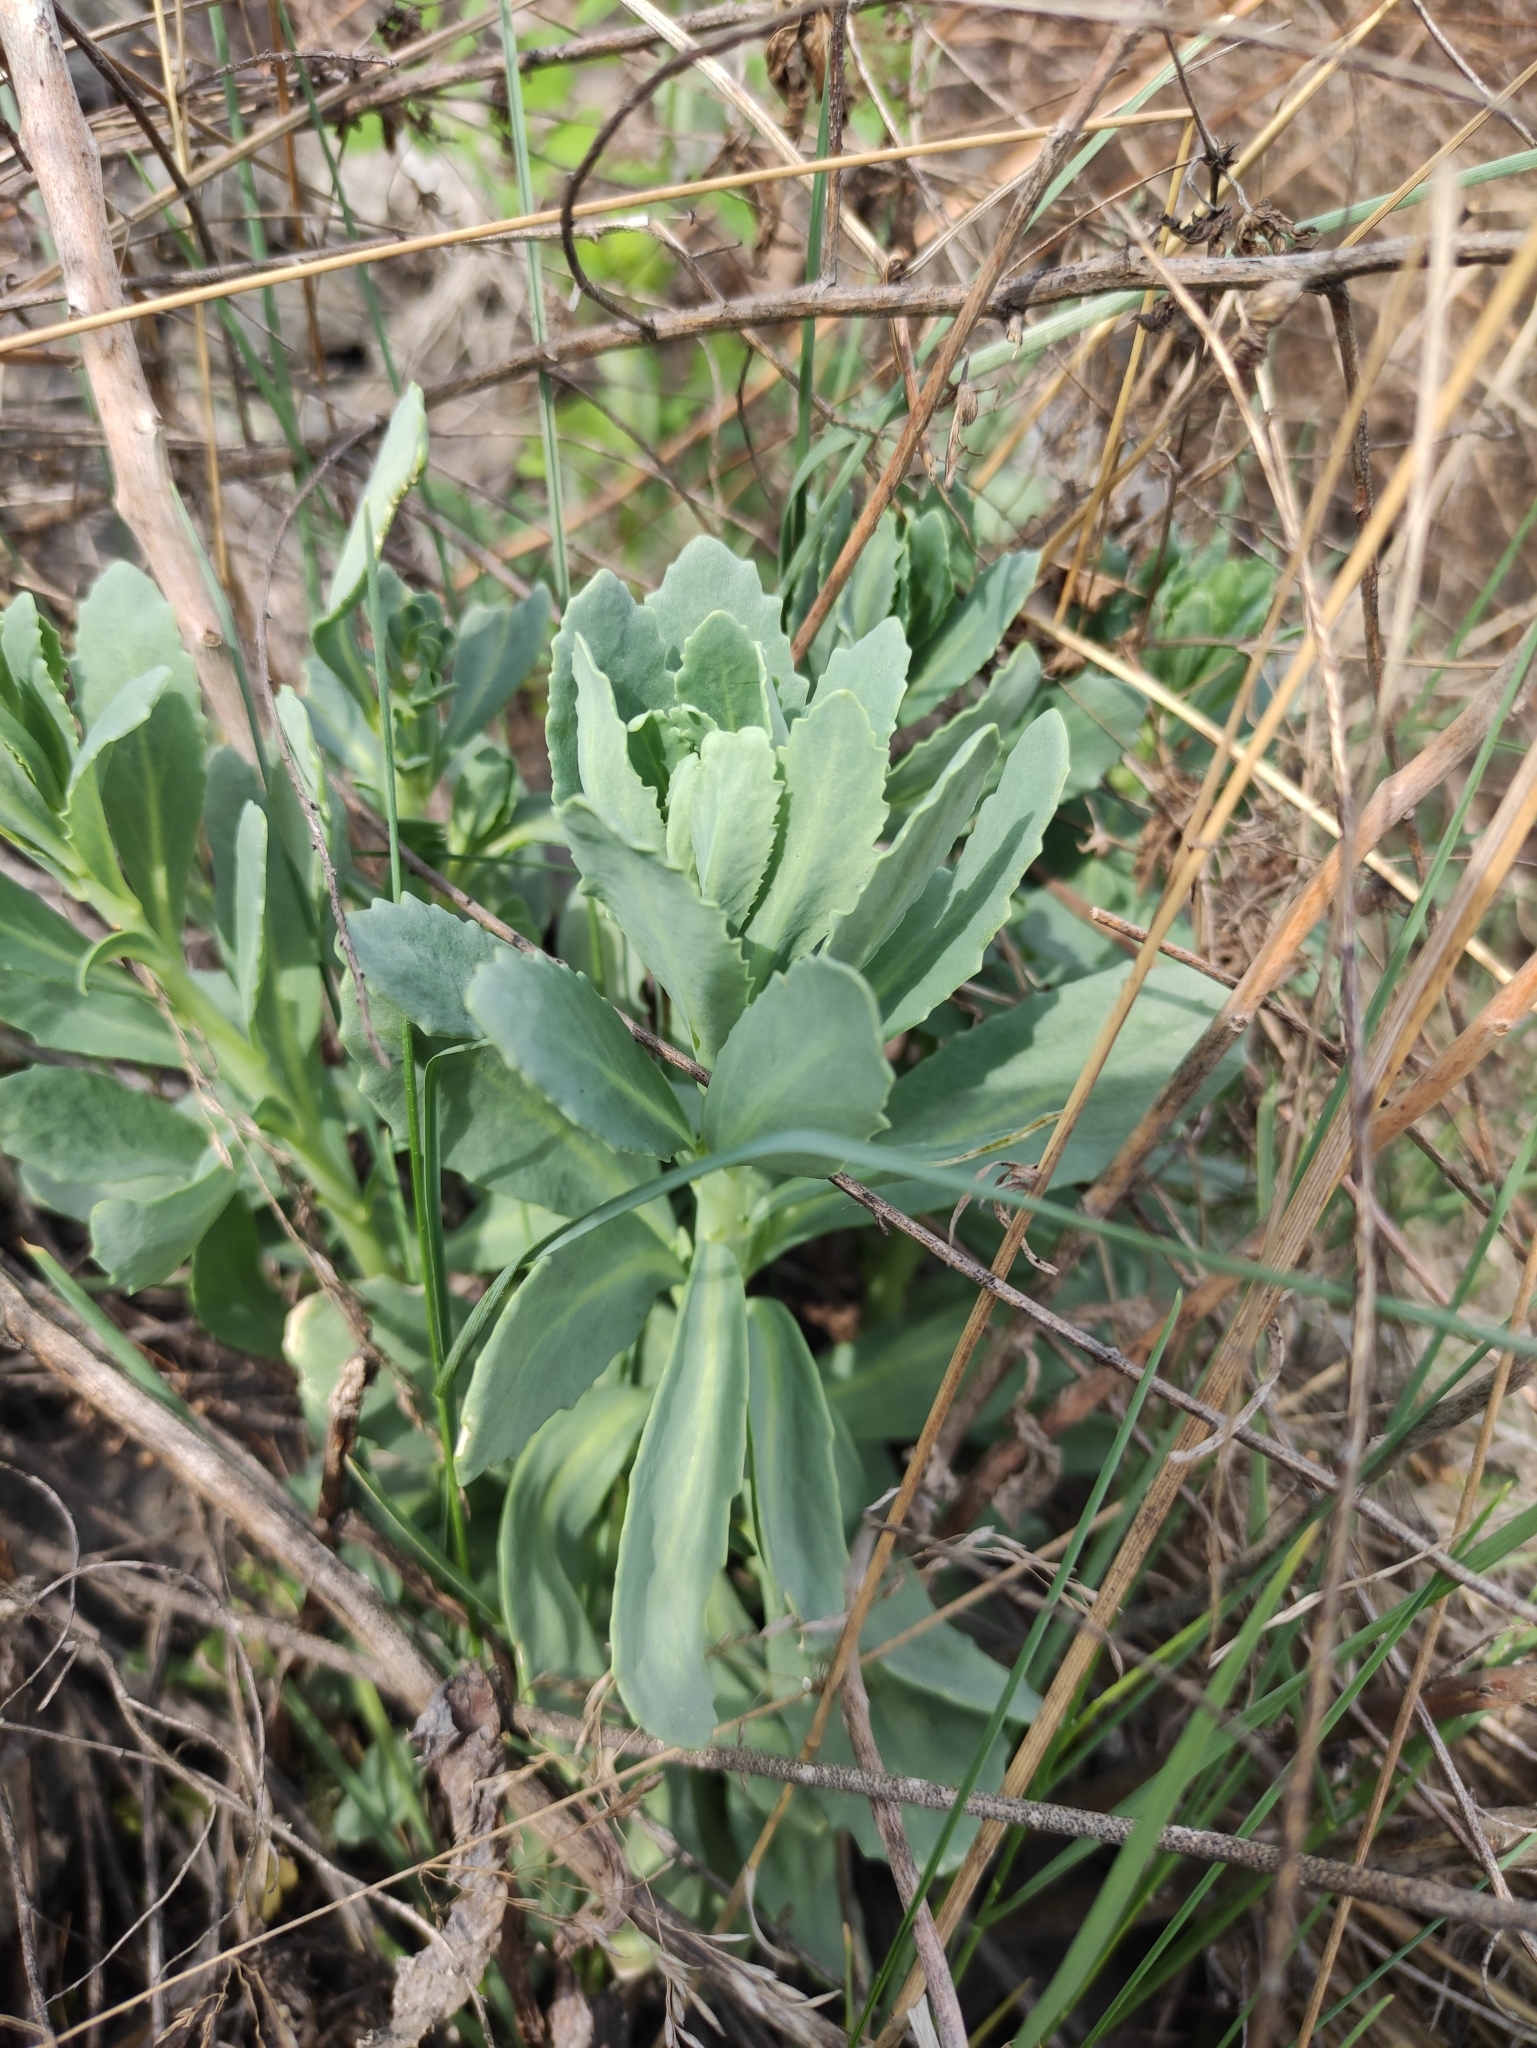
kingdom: Plantae
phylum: Tracheophyta
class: Magnoliopsida
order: Saxifragales
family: Crassulaceae
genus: Hylotelephium
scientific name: Hylotelephium telephium
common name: Live-forever
